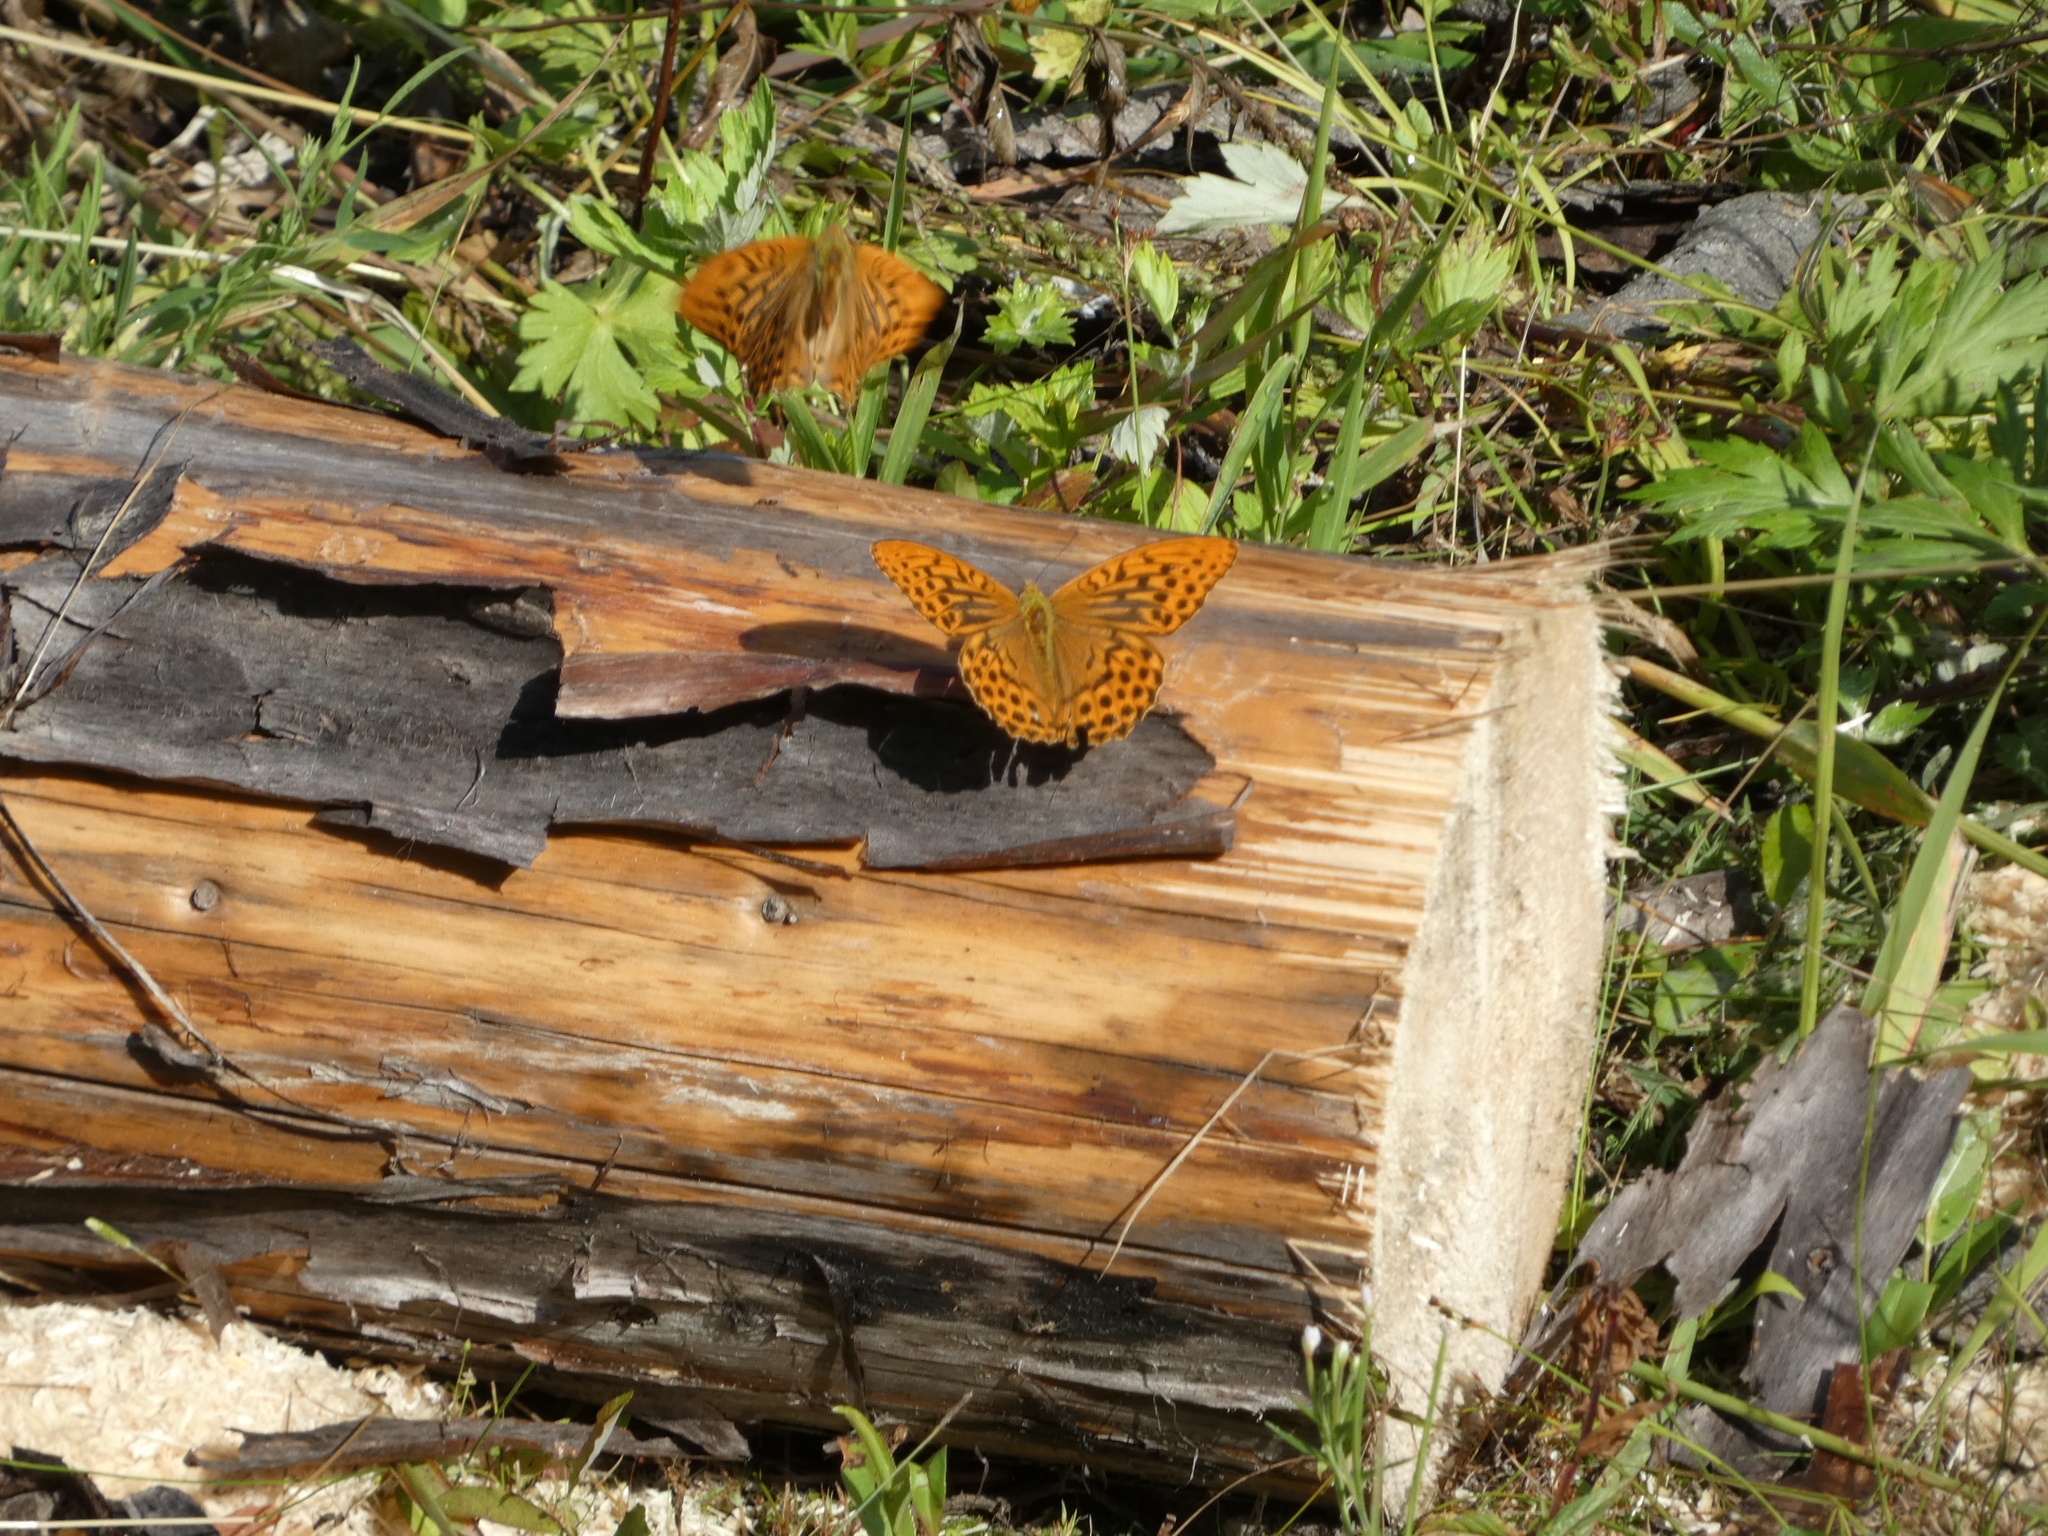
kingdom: Animalia
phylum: Arthropoda
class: Insecta
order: Lepidoptera
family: Nymphalidae
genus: Argynnis
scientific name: Argynnis paphia
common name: Silver-washed fritillary
